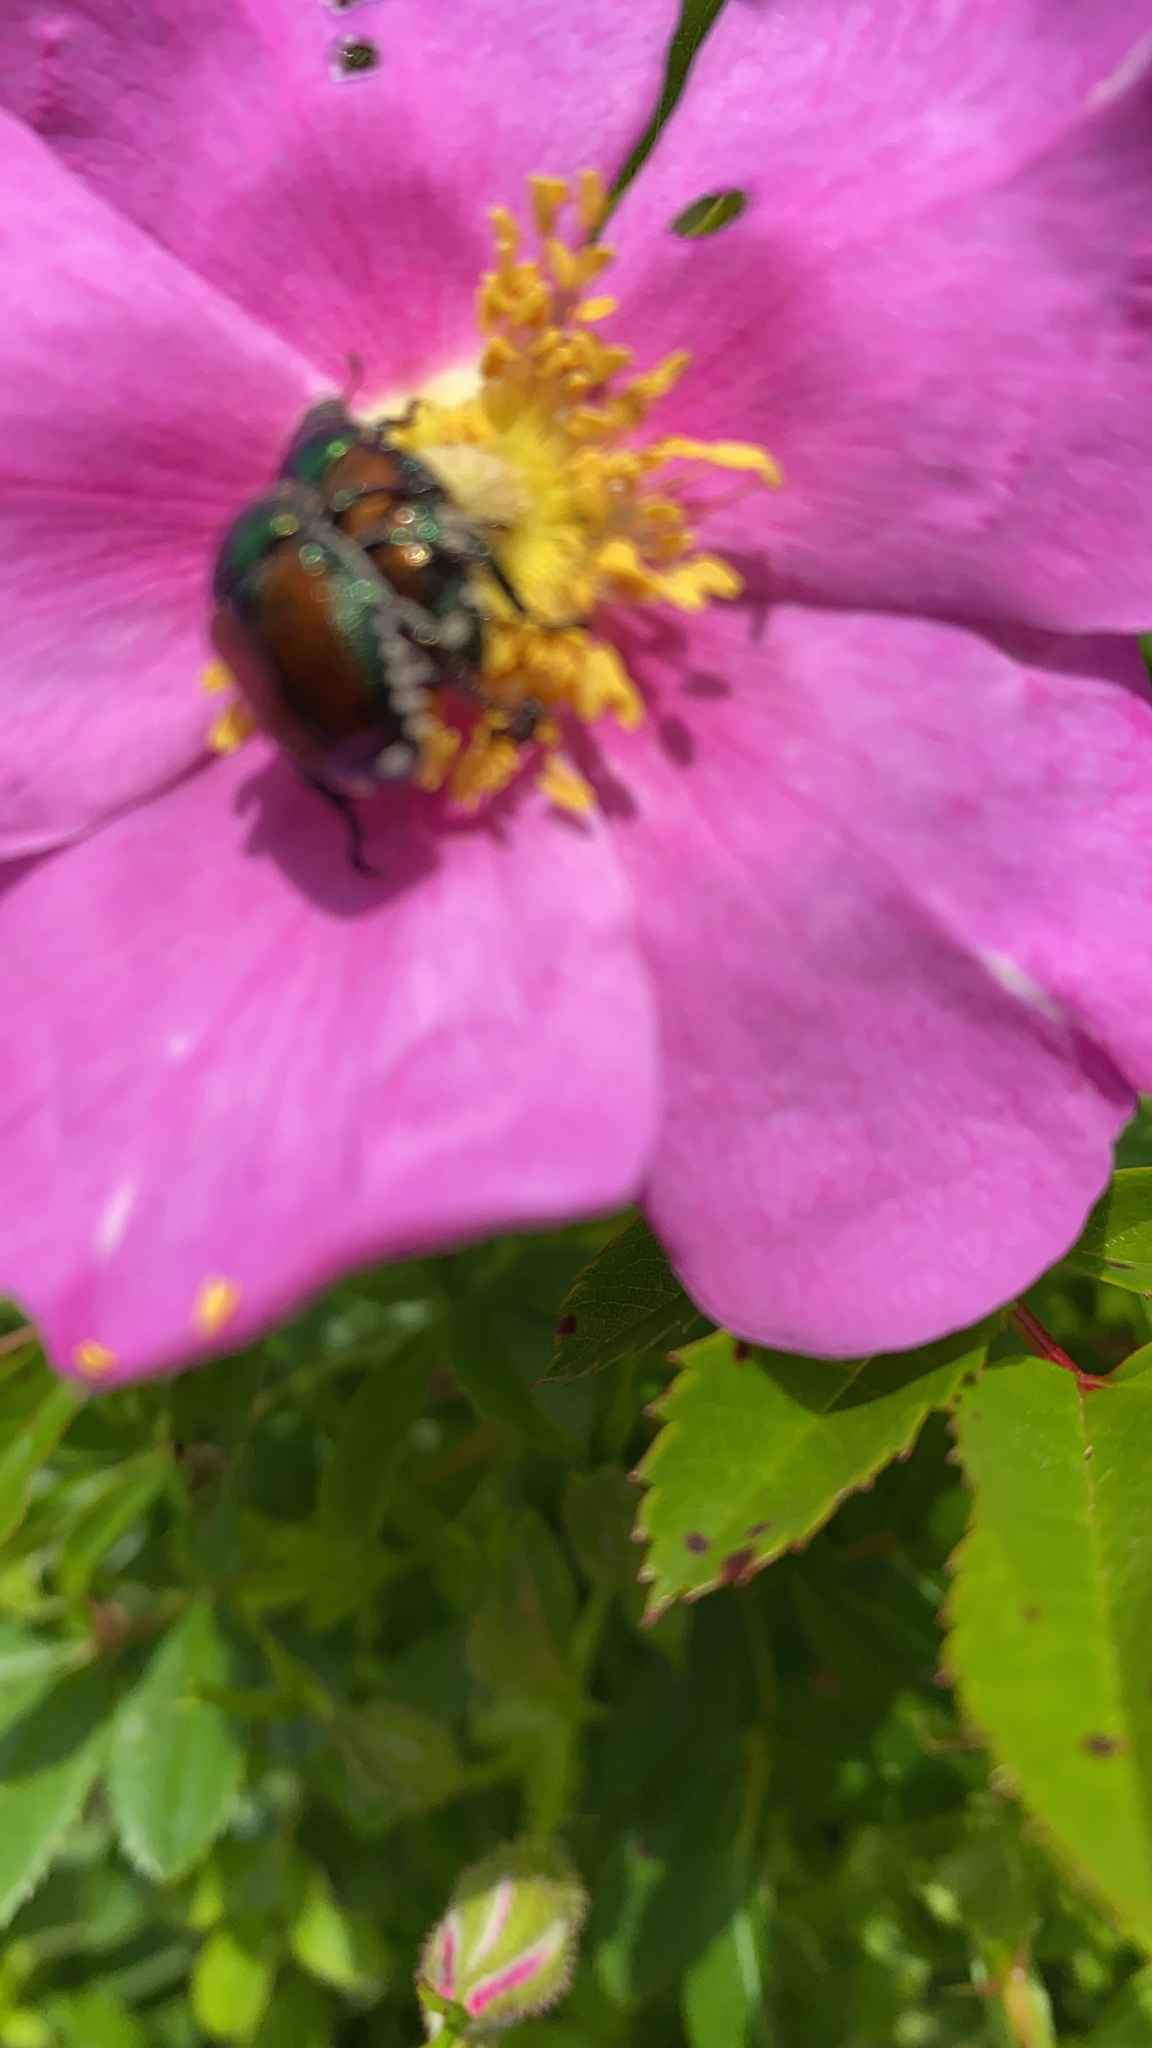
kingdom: Animalia
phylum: Arthropoda
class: Insecta
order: Coleoptera
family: Scarabaeidae
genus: Popillia
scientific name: Popillia japonica
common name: Japanese beetle
